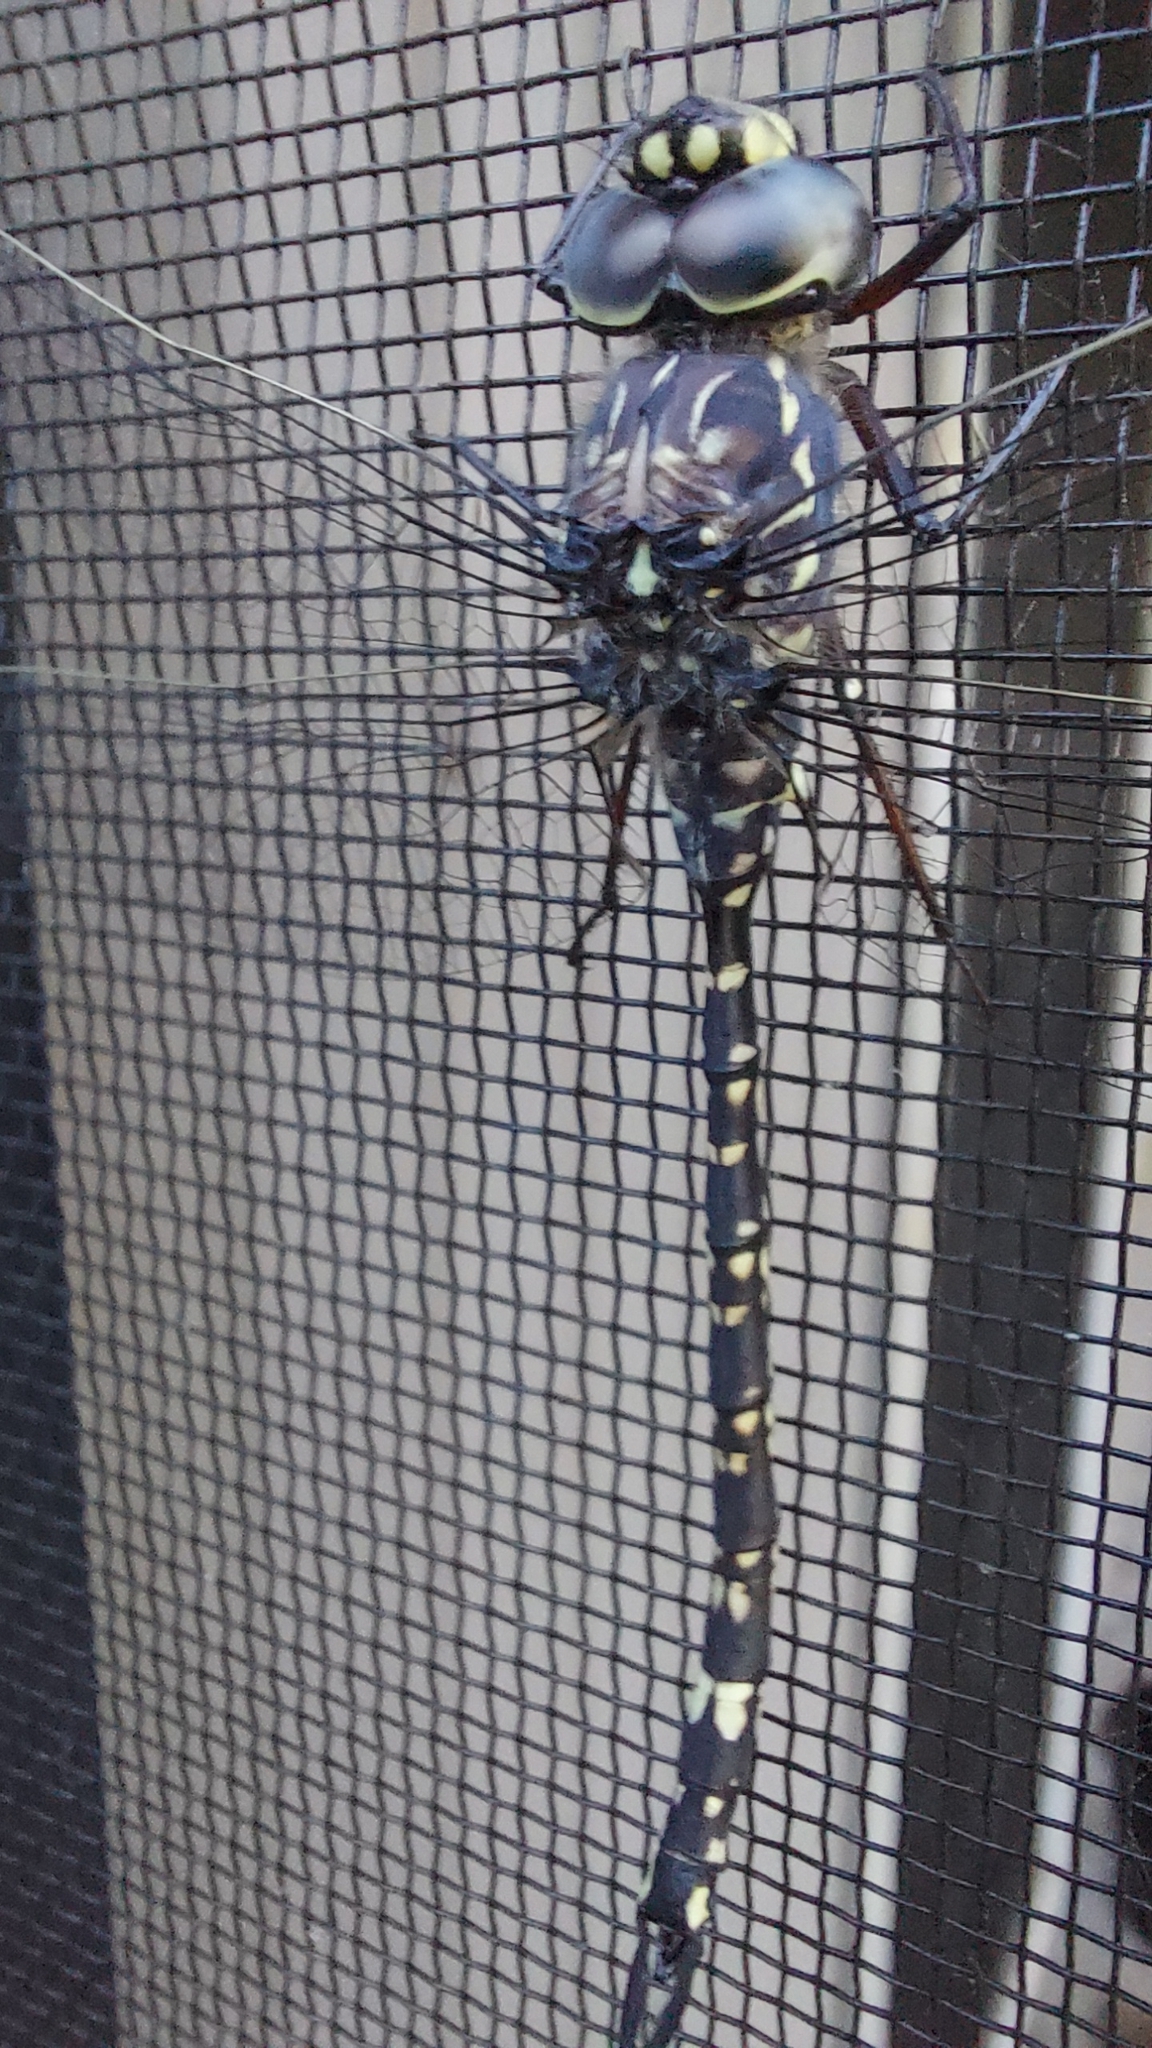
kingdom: Animalia
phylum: Arthropoda
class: Insecta
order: Odonata
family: Aeshnidae
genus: Austroaeschna
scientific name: Austroaeschna parvistigma
